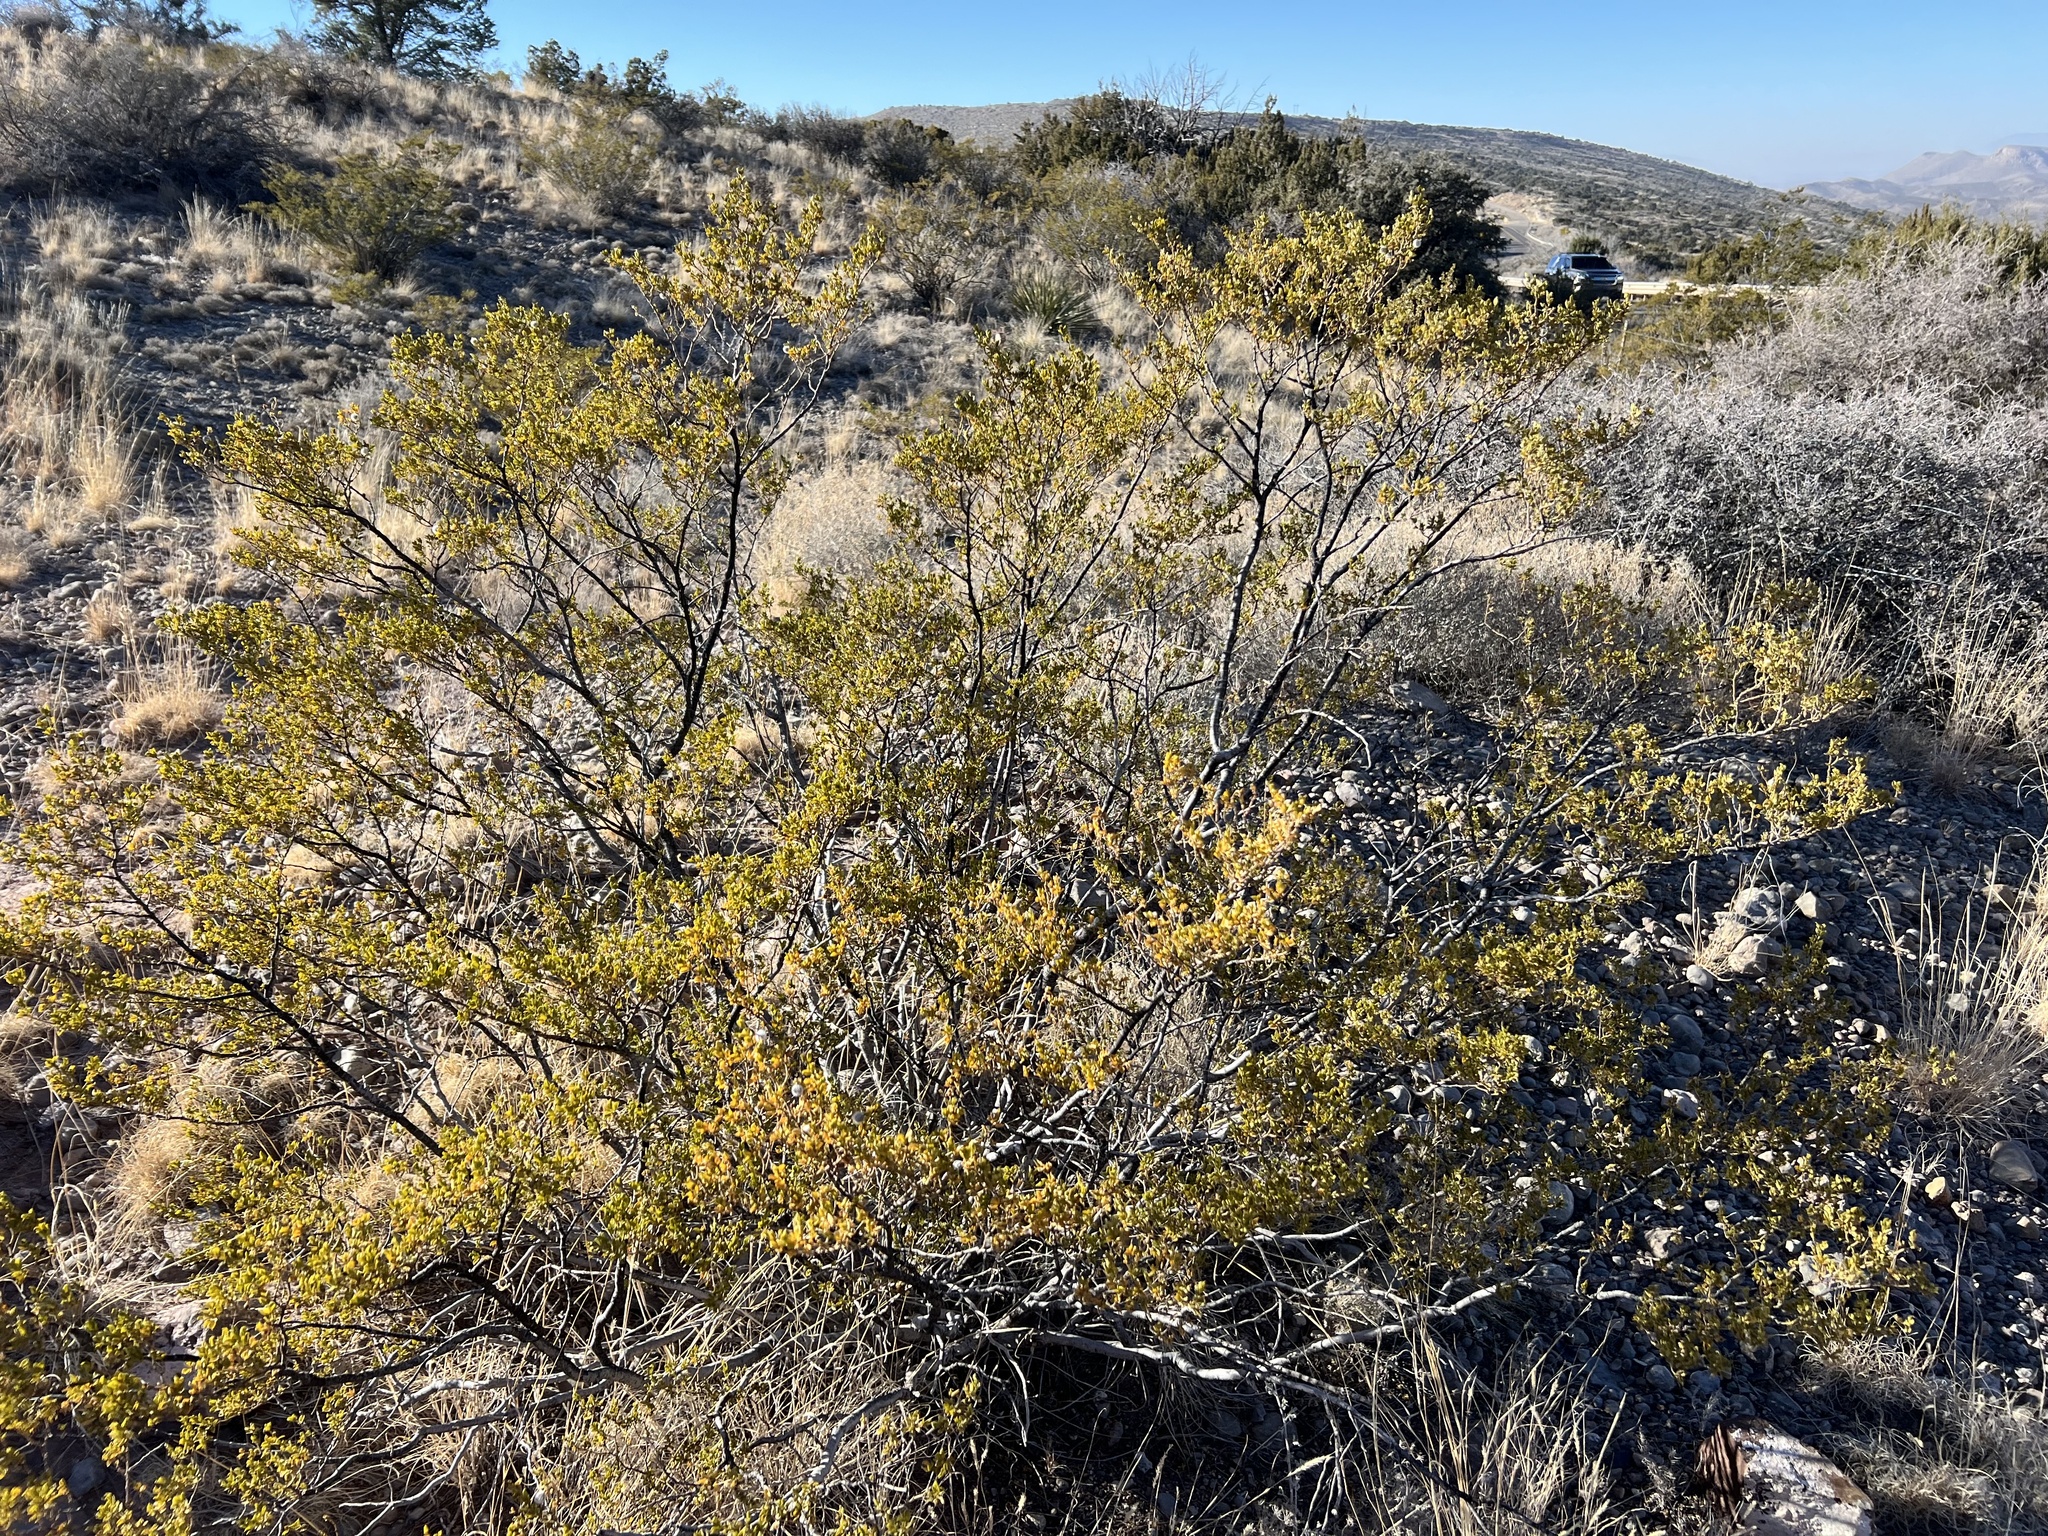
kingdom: Plantae
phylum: Tracheophyta
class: Magnoliopsida
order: Zygophyllales
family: Zygophyllaceae
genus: Larrea
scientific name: Larrea tridentata
